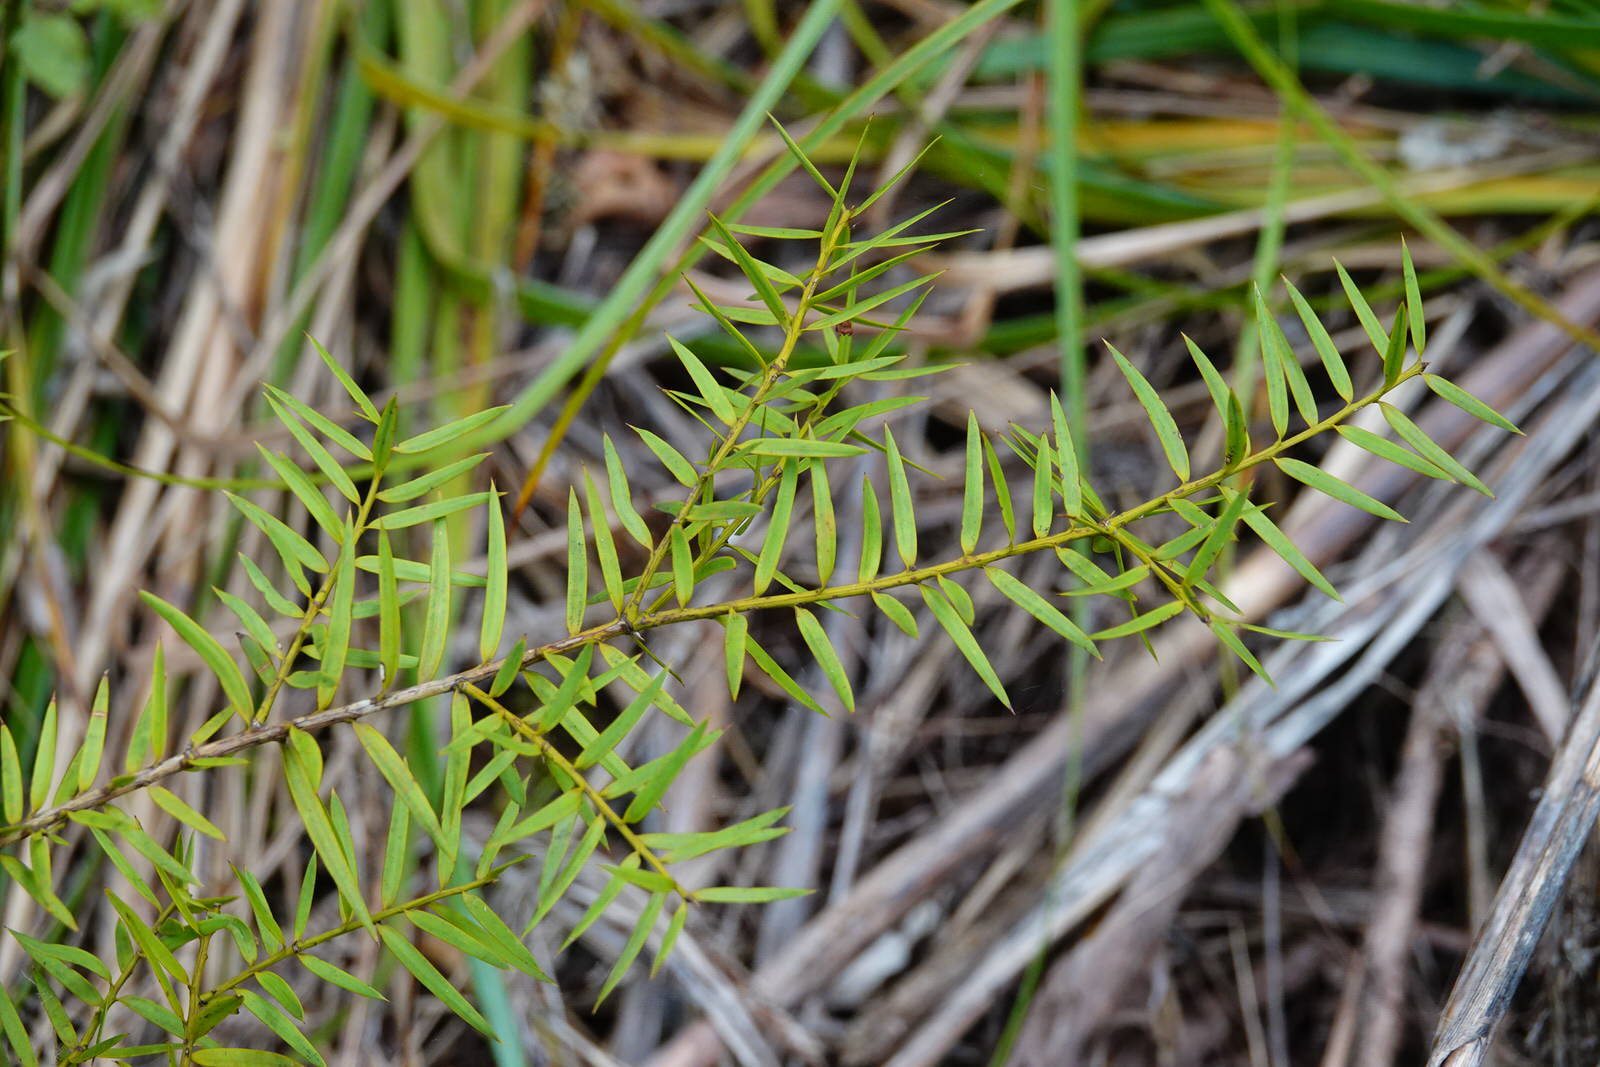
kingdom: Plantae
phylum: Tracheophyta
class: Pinopsida
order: Pinales
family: Podocarpaceae
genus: Podocarpus
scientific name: Podocarpus totara
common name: Totara
